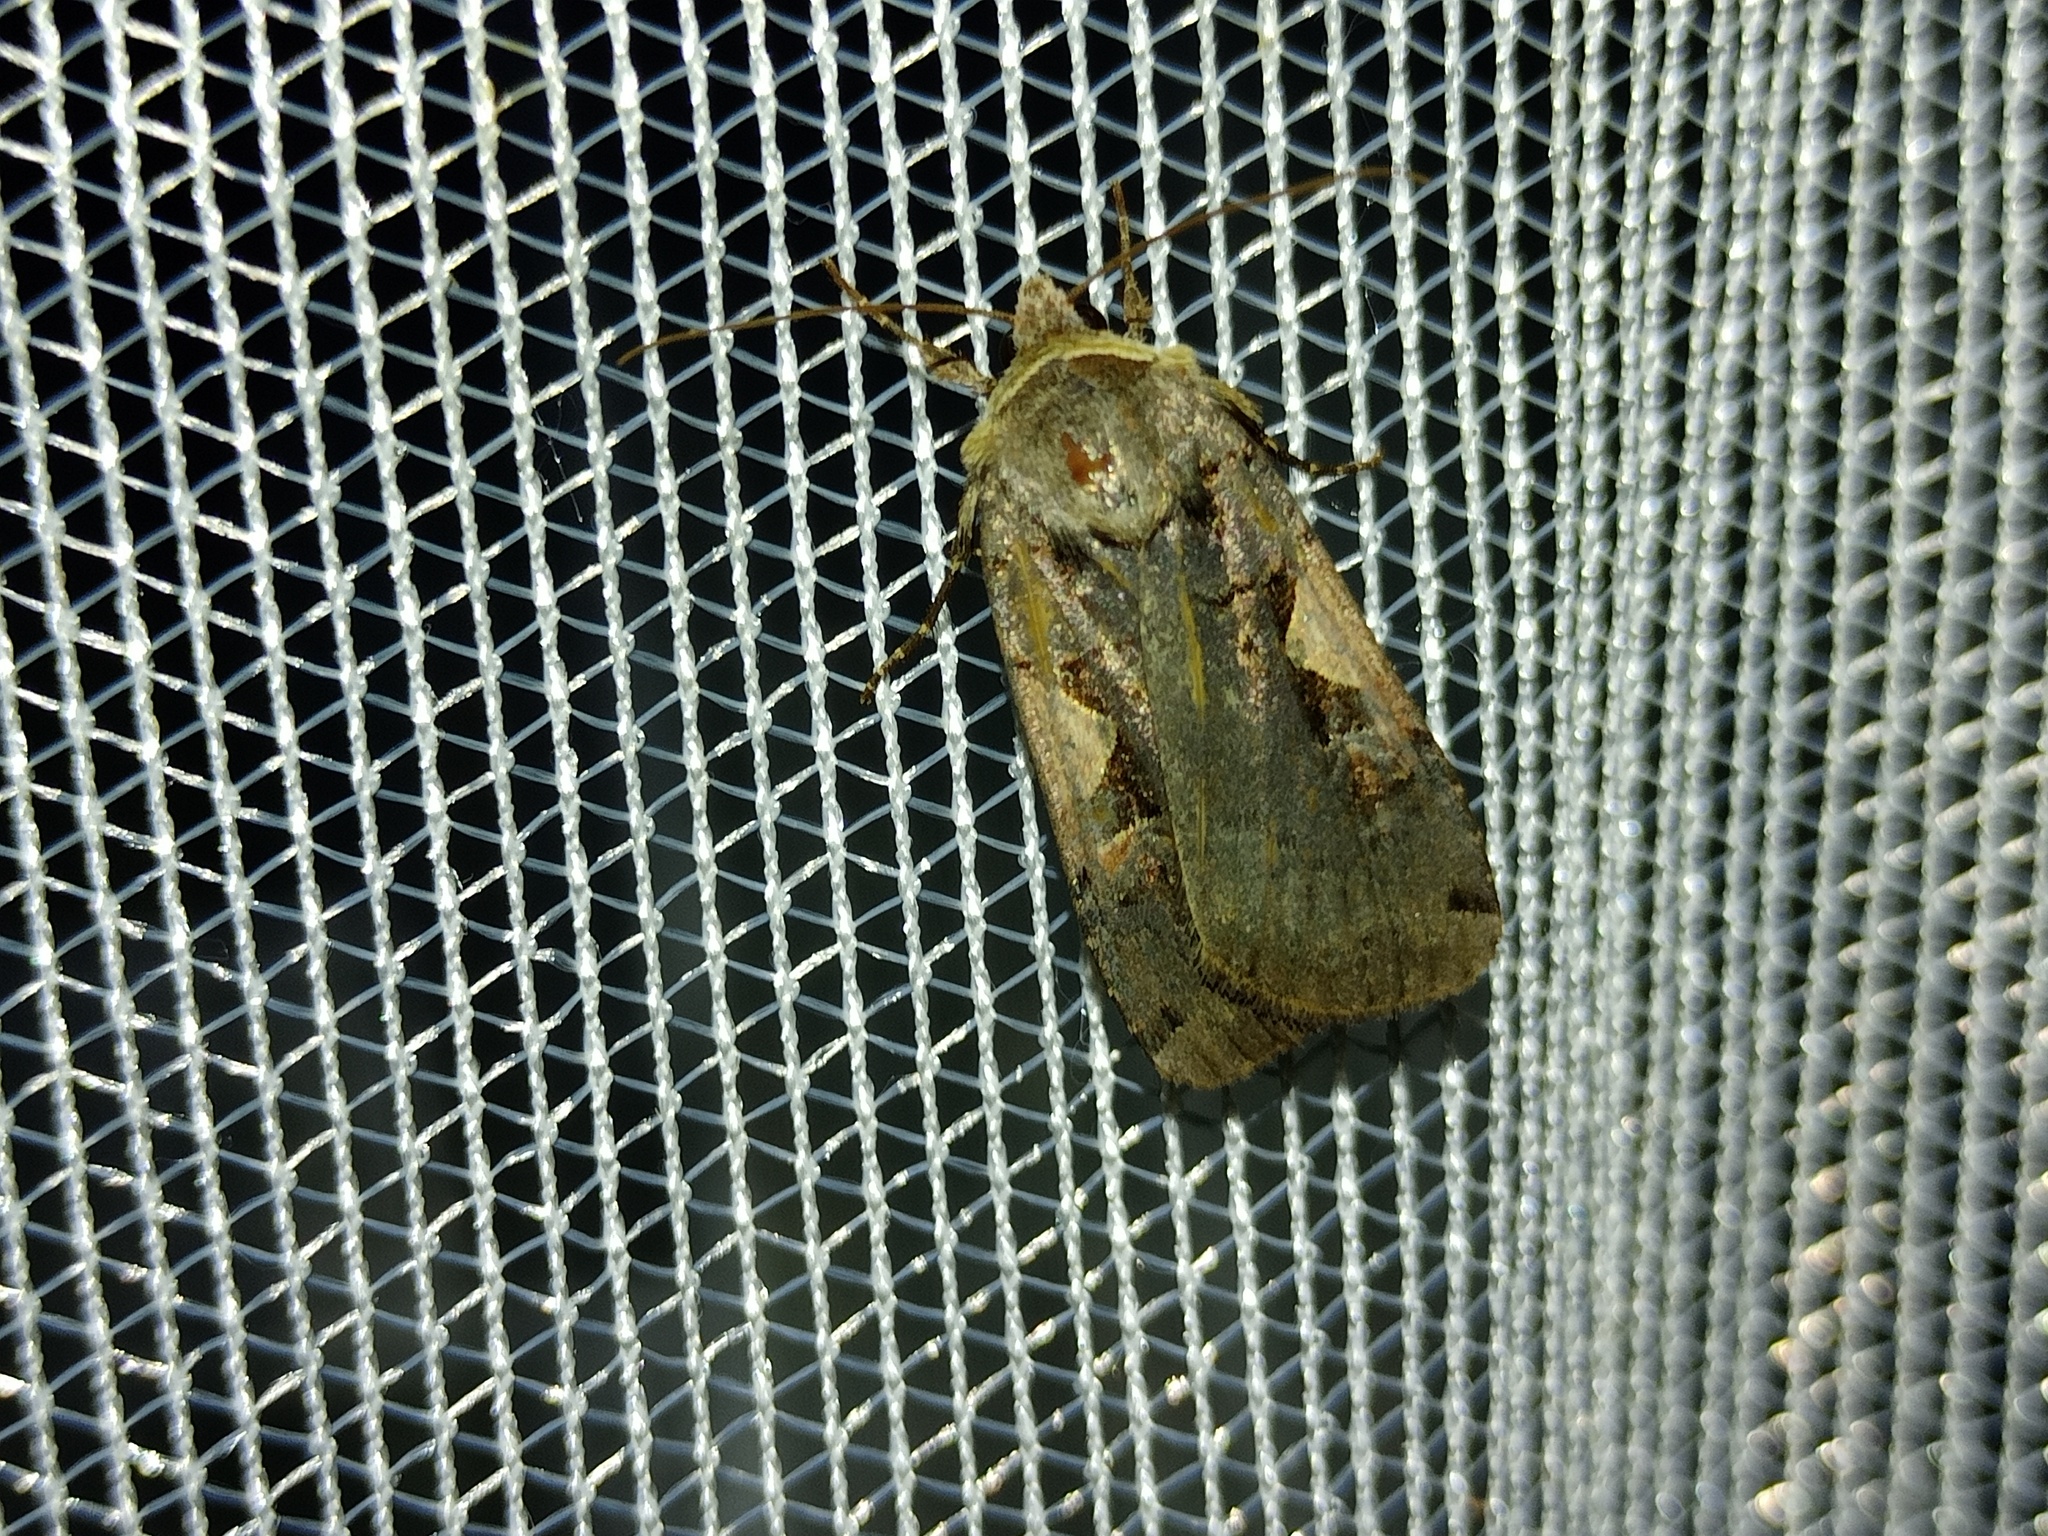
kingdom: Animalia
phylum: Arthropoda
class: Insecta
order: Lepidoptera
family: Noctuidae
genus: Xestia
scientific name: Xestia c-nigrum
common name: Setaceous hebrew character
